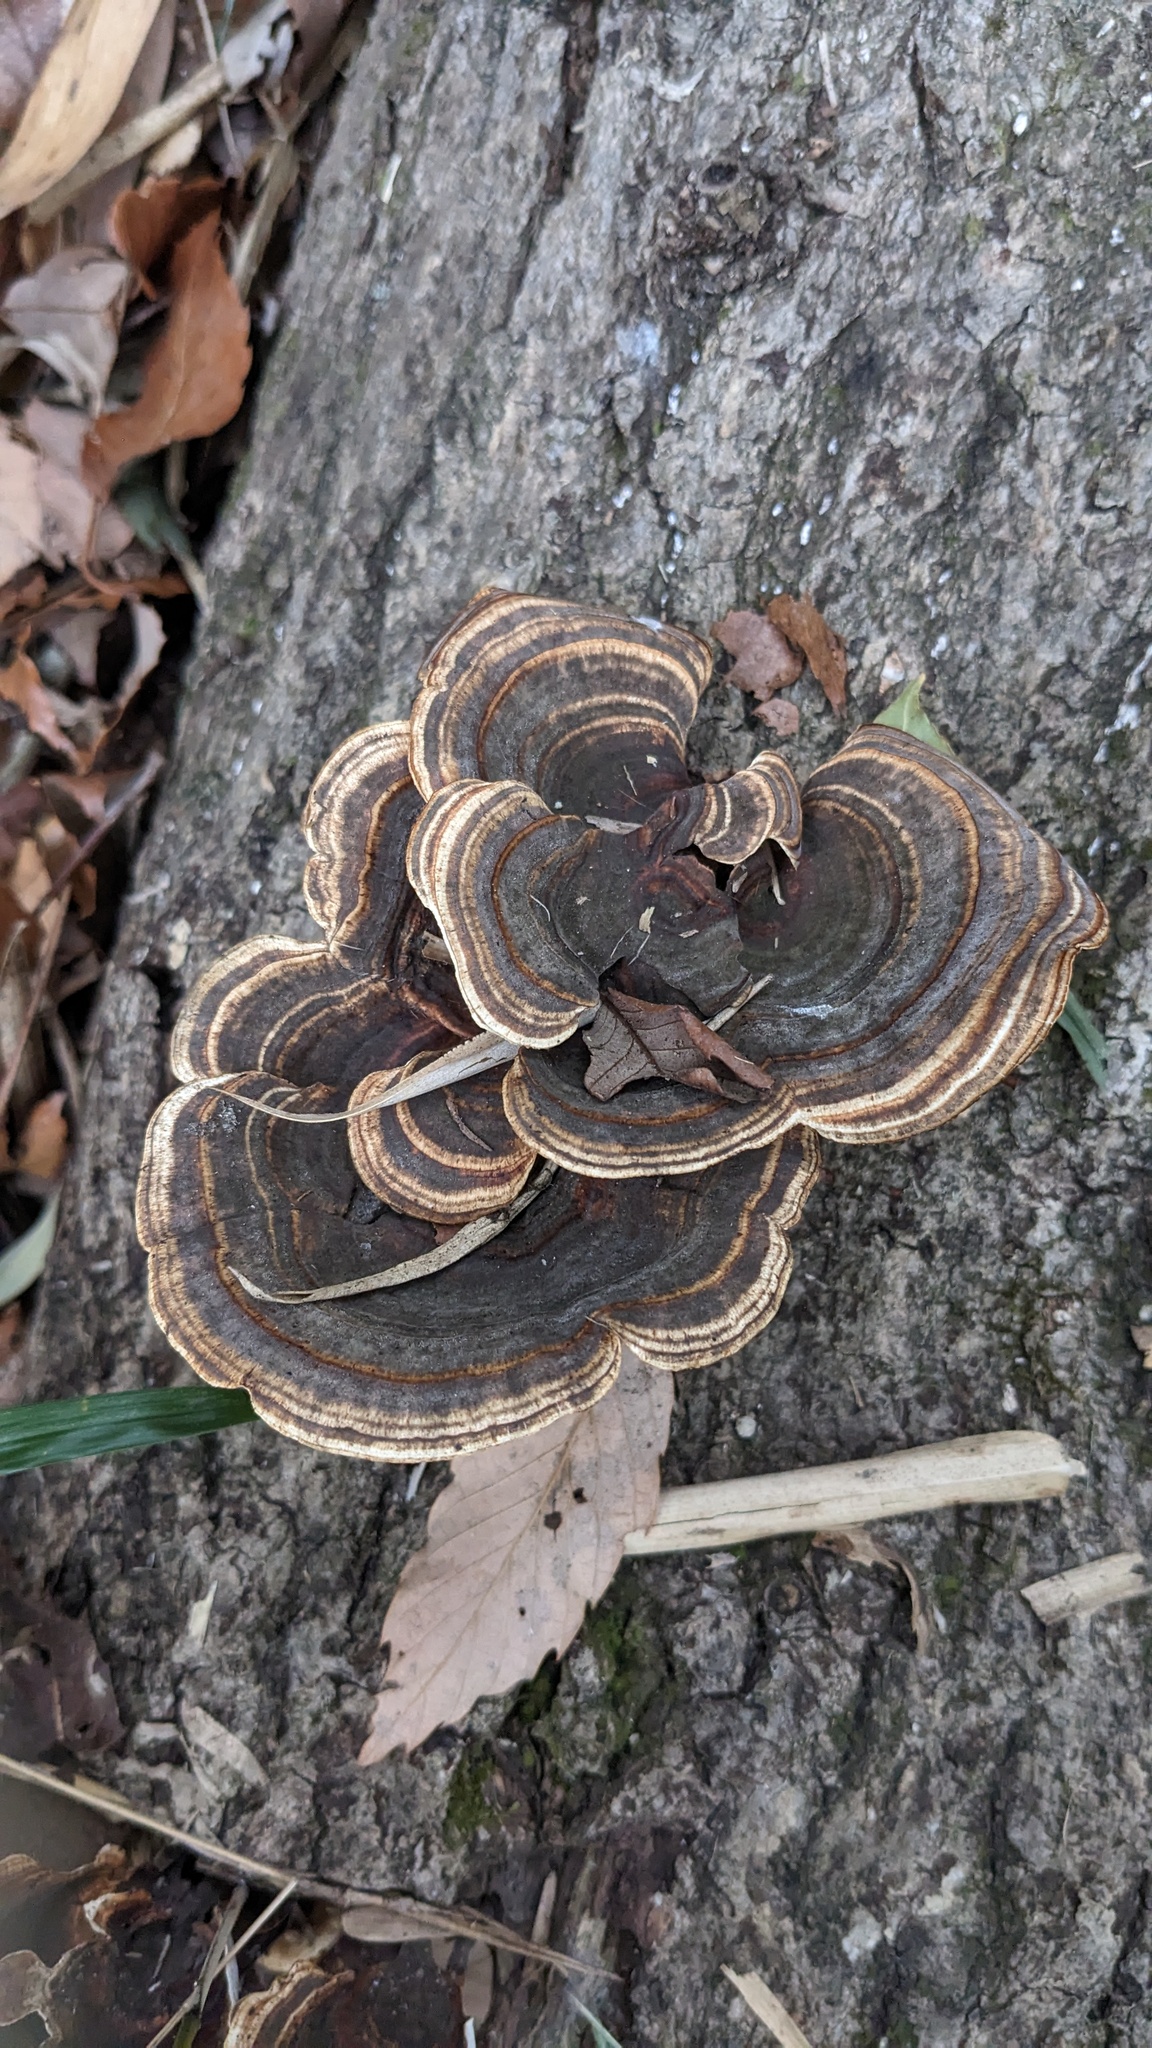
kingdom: Fungi
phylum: Basidiomycota
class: Agaricomycetes
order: Polyporales
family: Polyporaceae
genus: Microporus
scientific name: Microporus affinis
